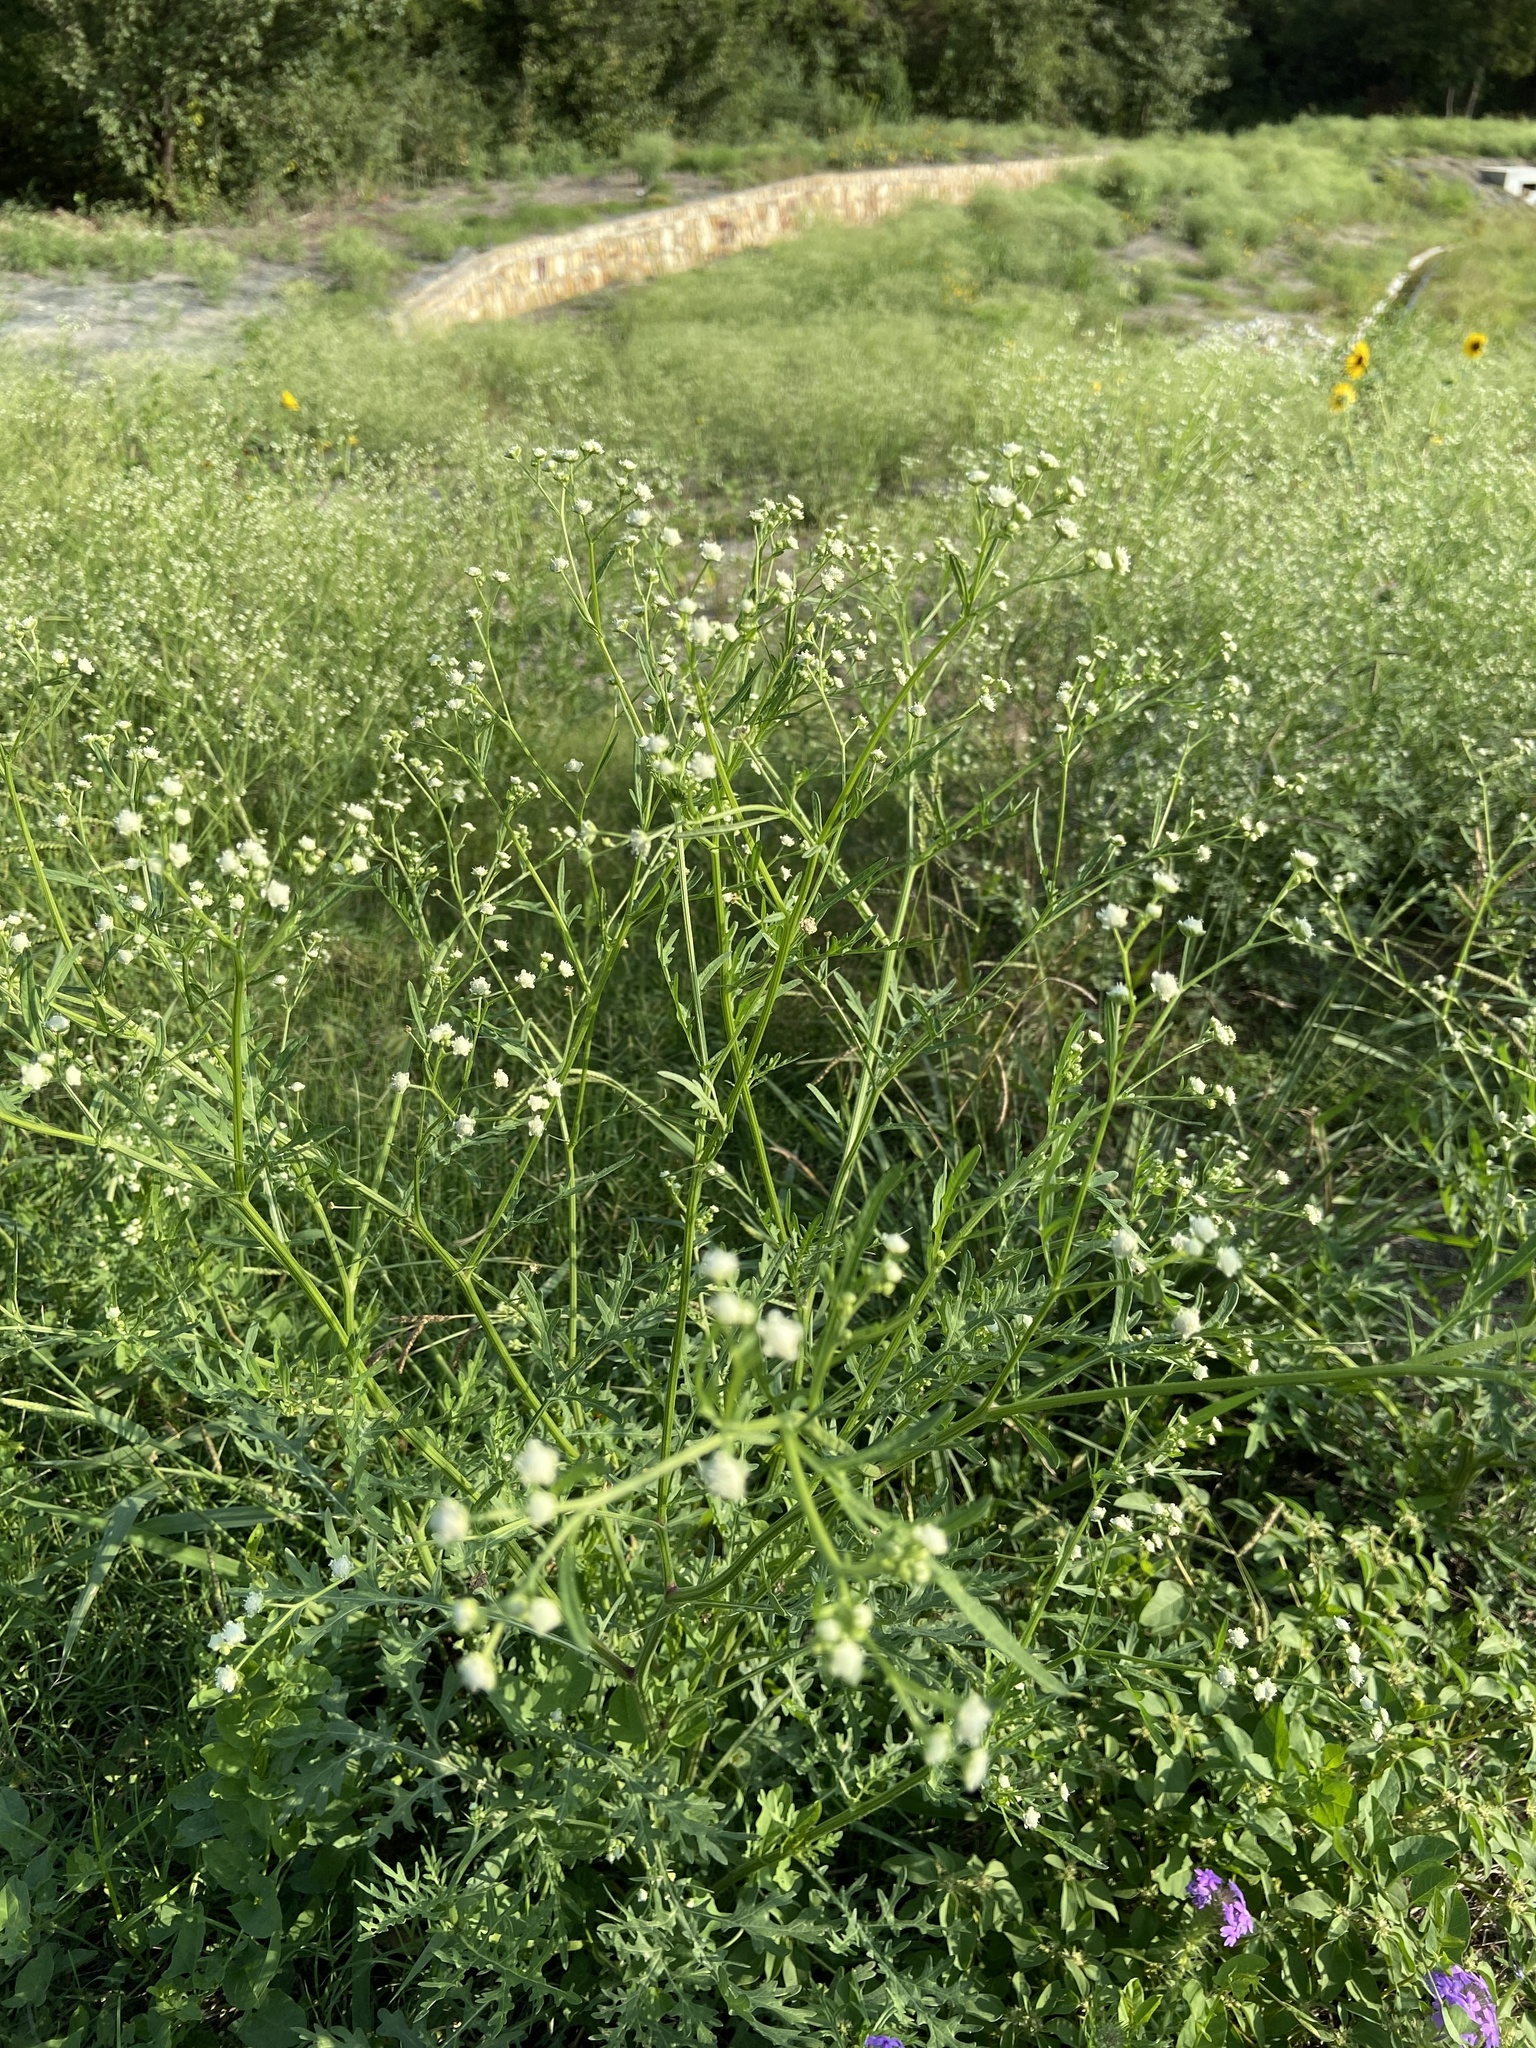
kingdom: Plantae
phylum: Tracheophyta
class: Magnoliopsida
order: Asterales
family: Asteraceae
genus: Parthenium
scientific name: Parthenium hysterophorus
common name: Santa maria feverfew
